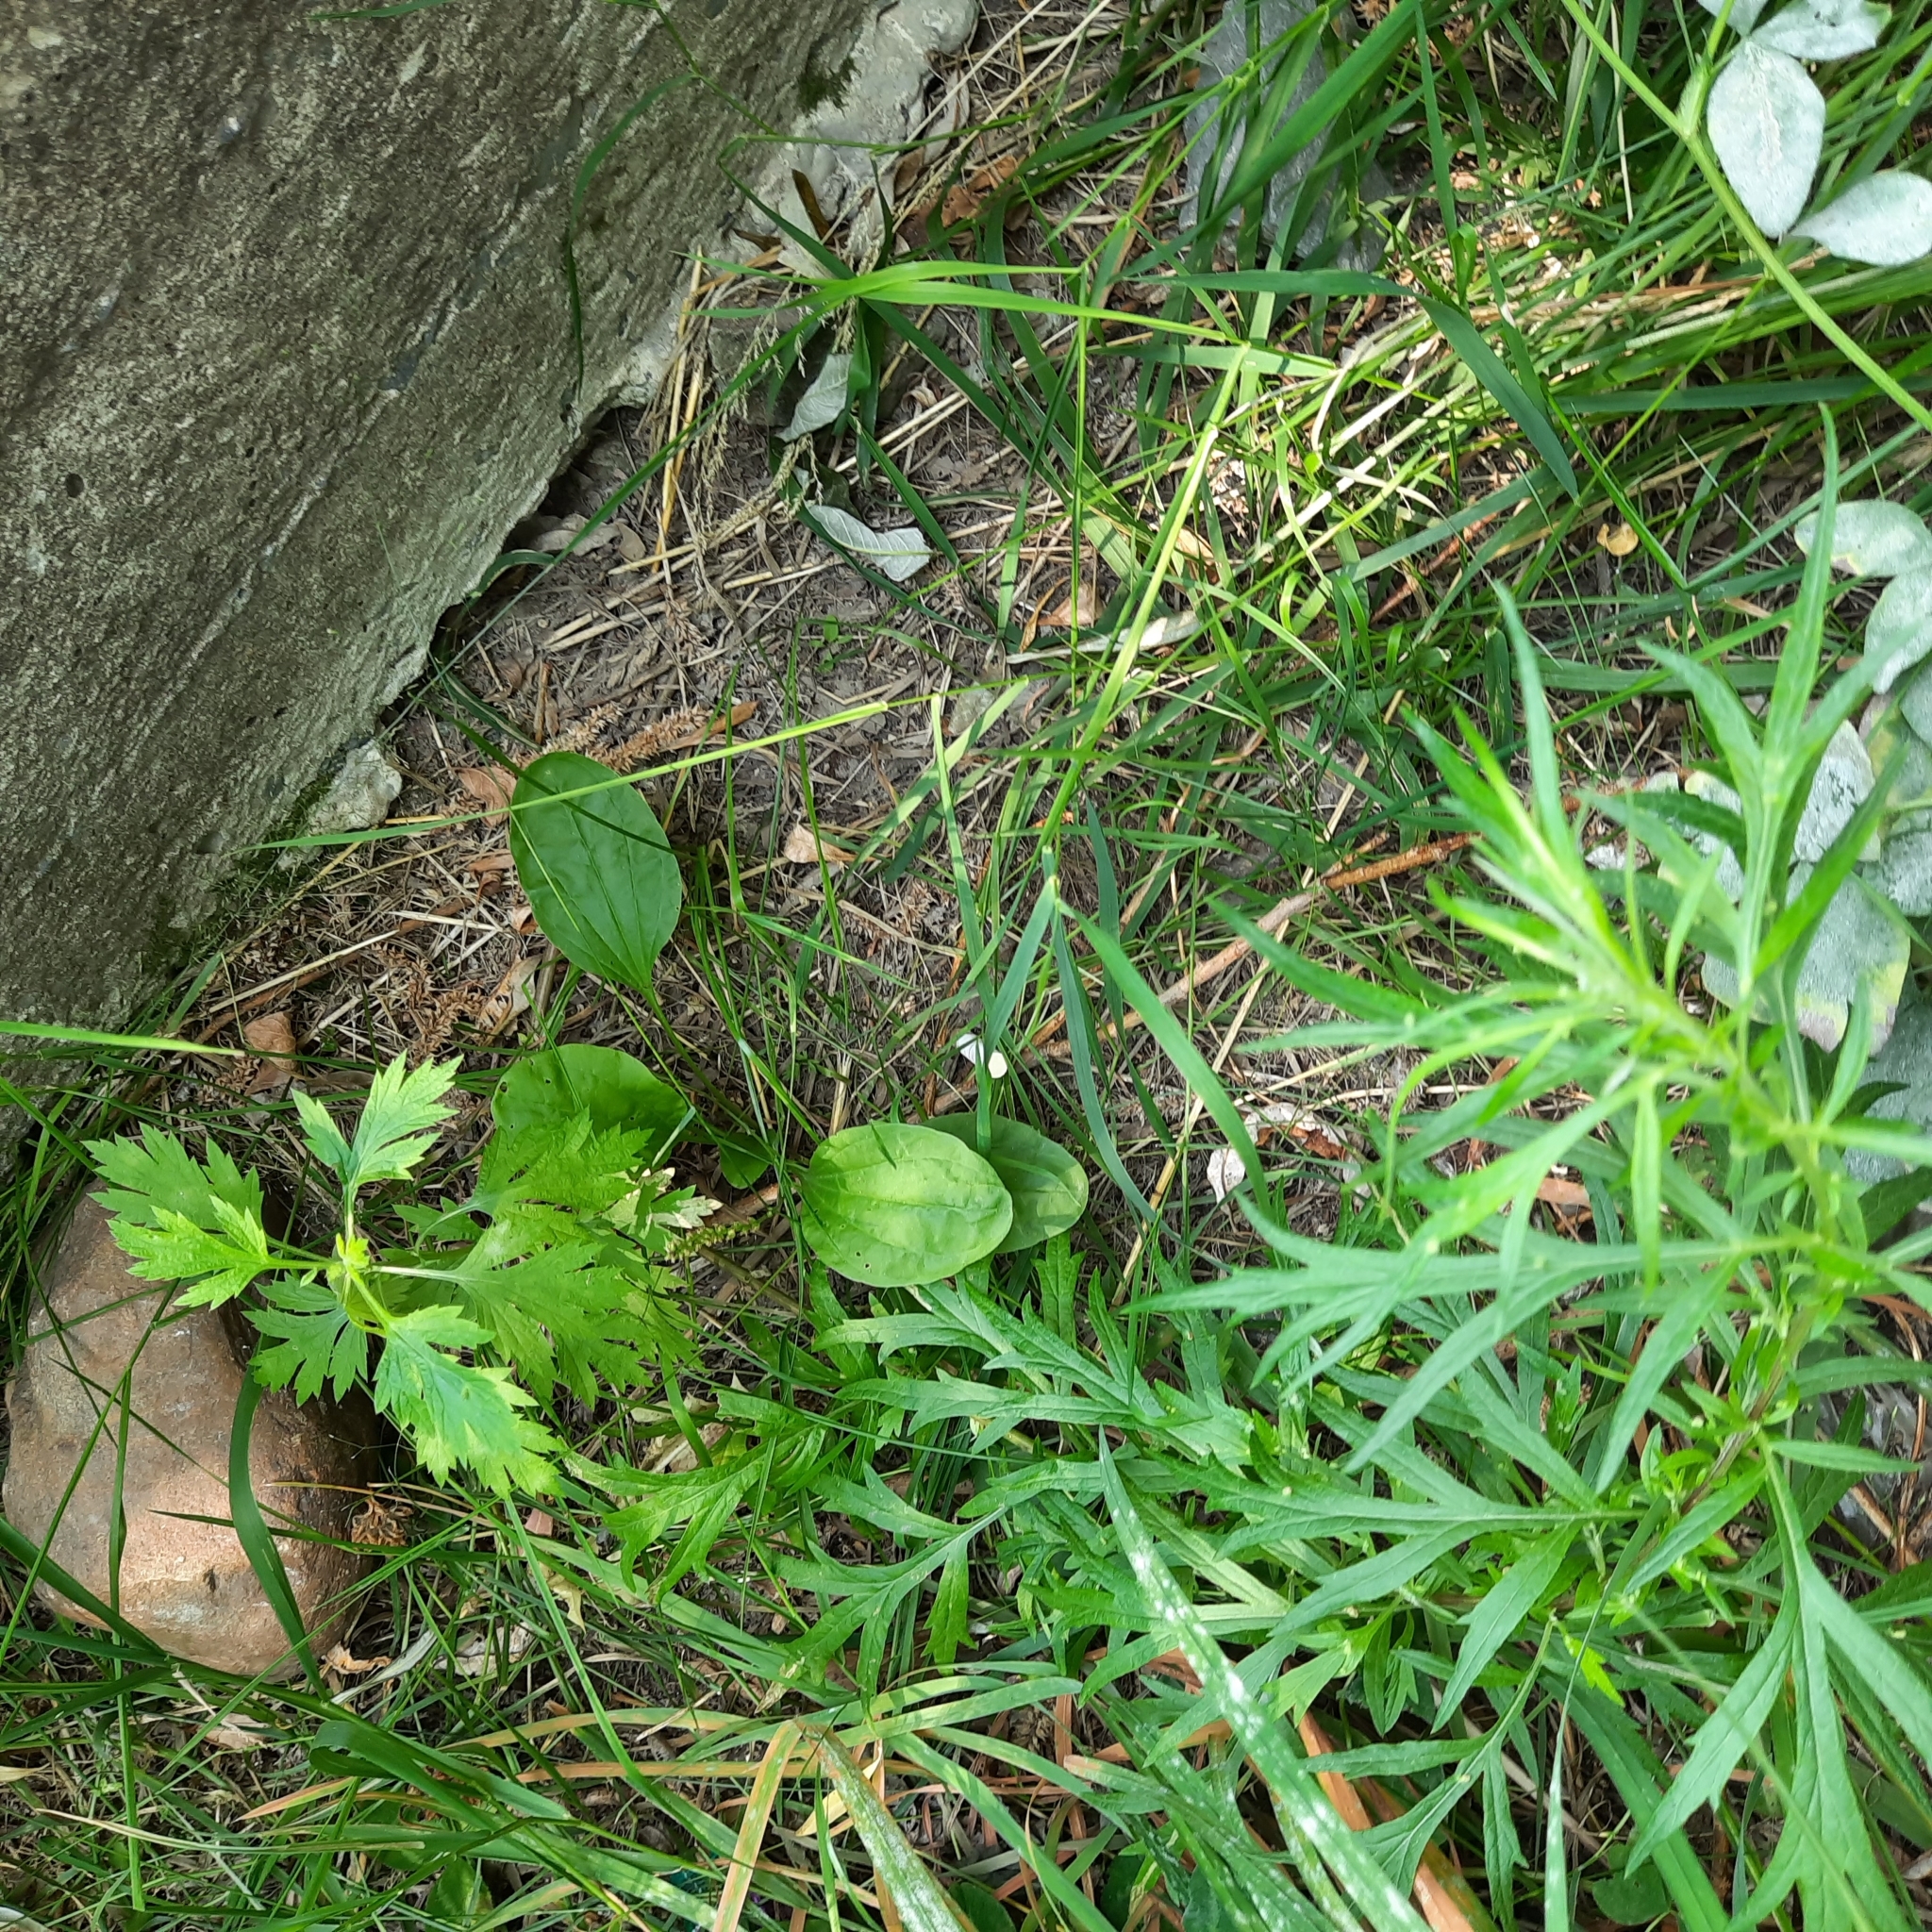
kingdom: Plantae
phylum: Tracheophyta
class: Magnoliopsida
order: Lamiales
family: Plantaginaceae
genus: Plantago
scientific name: Plantago major
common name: Common plantain
